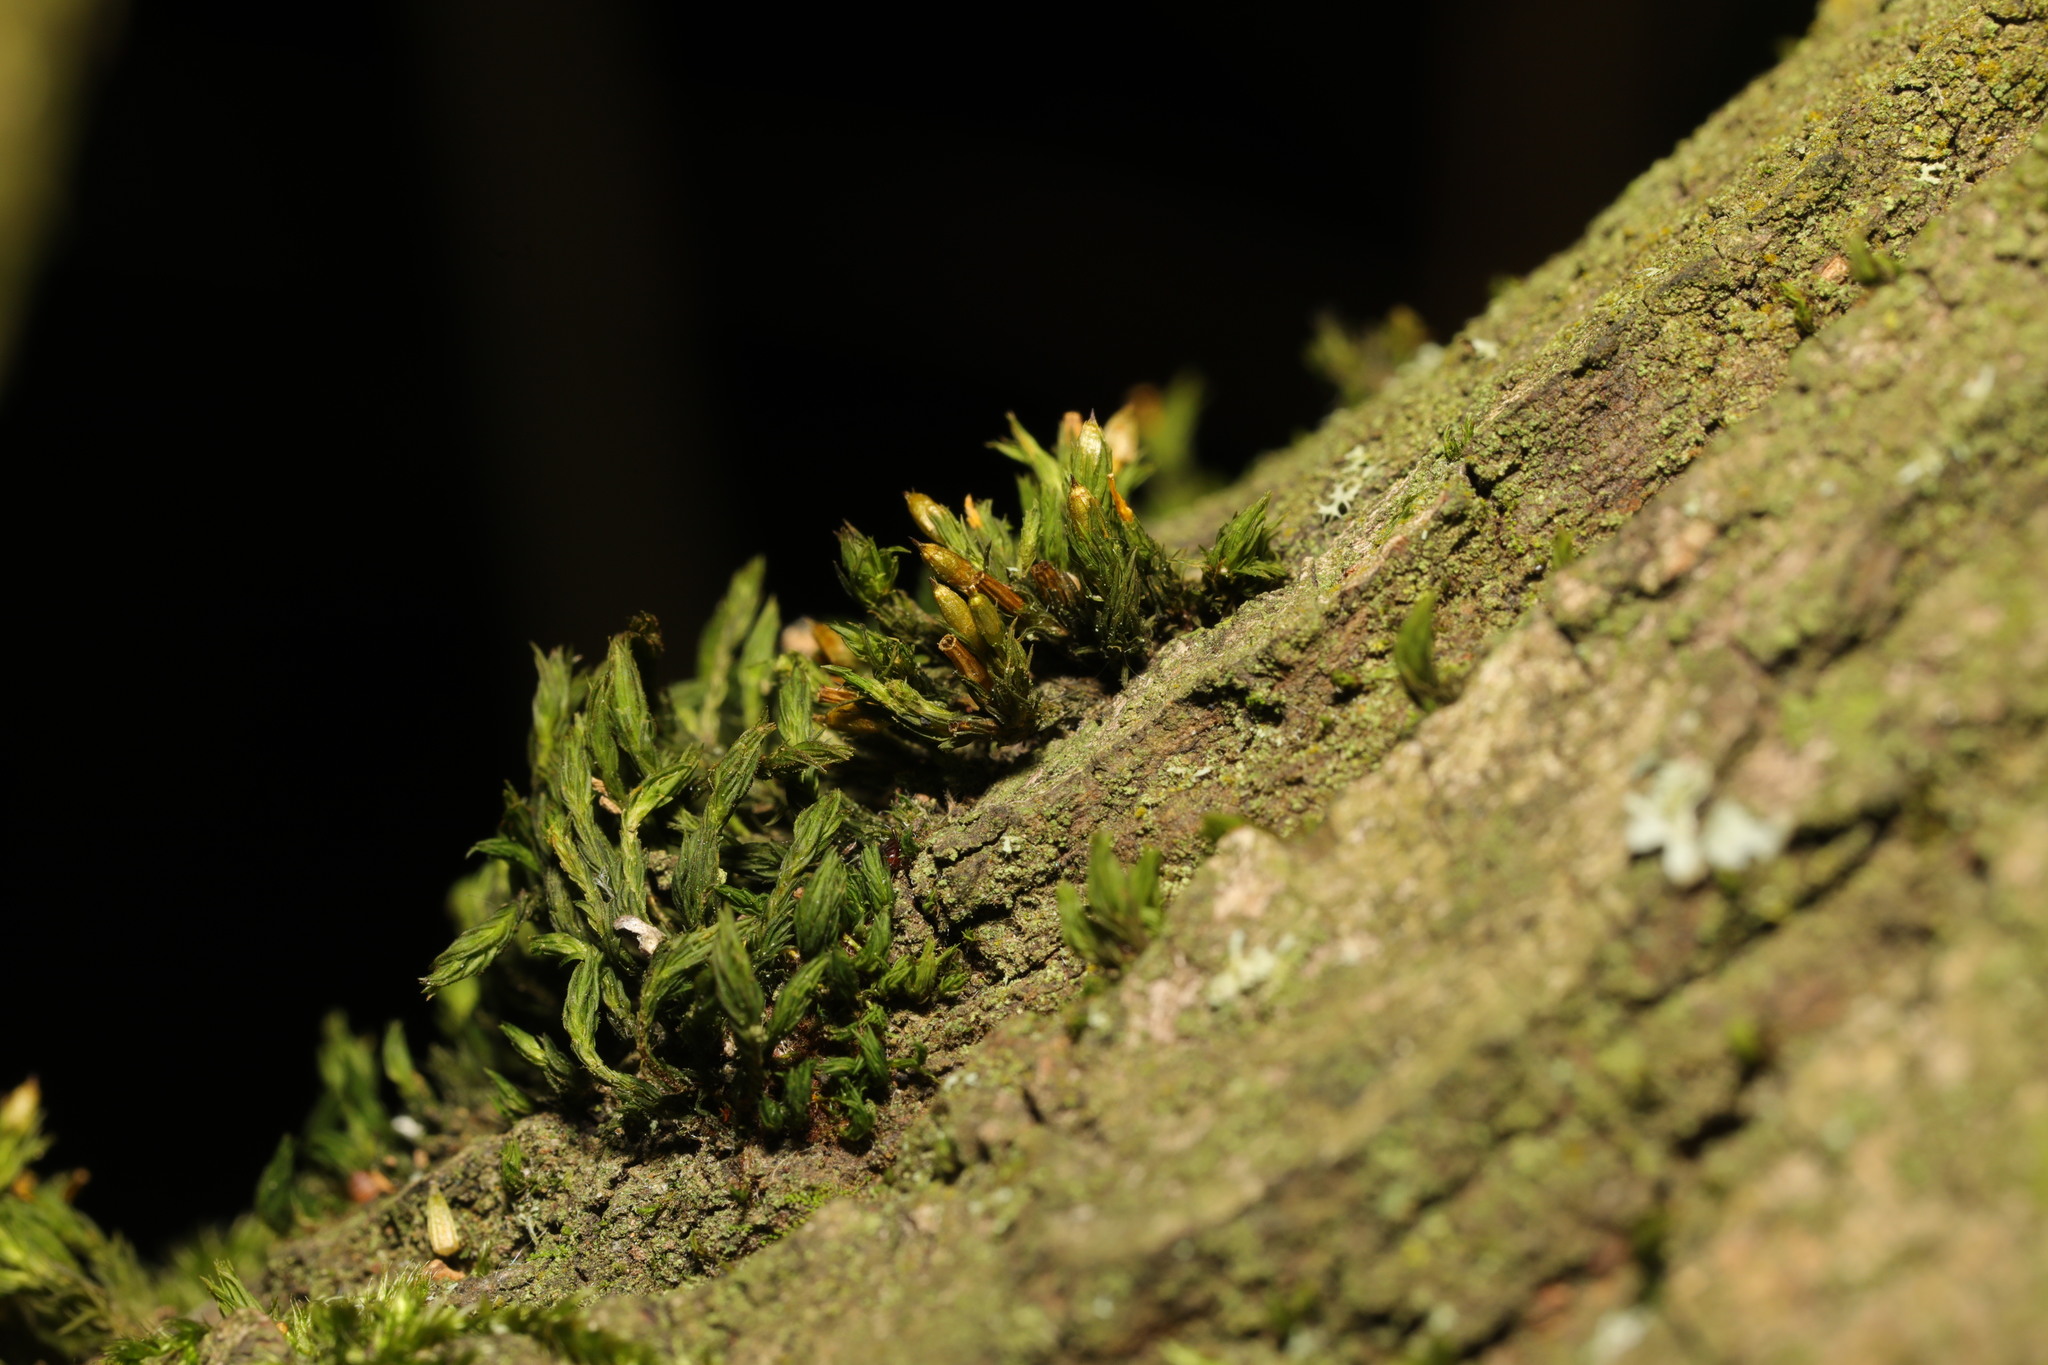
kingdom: Plantae
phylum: Bryophyta
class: Bryopsida
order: Orthotrichales
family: Orthotrichaceae
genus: Lewinskya
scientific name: Lewinskya affinis
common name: Wood bristle-moss
